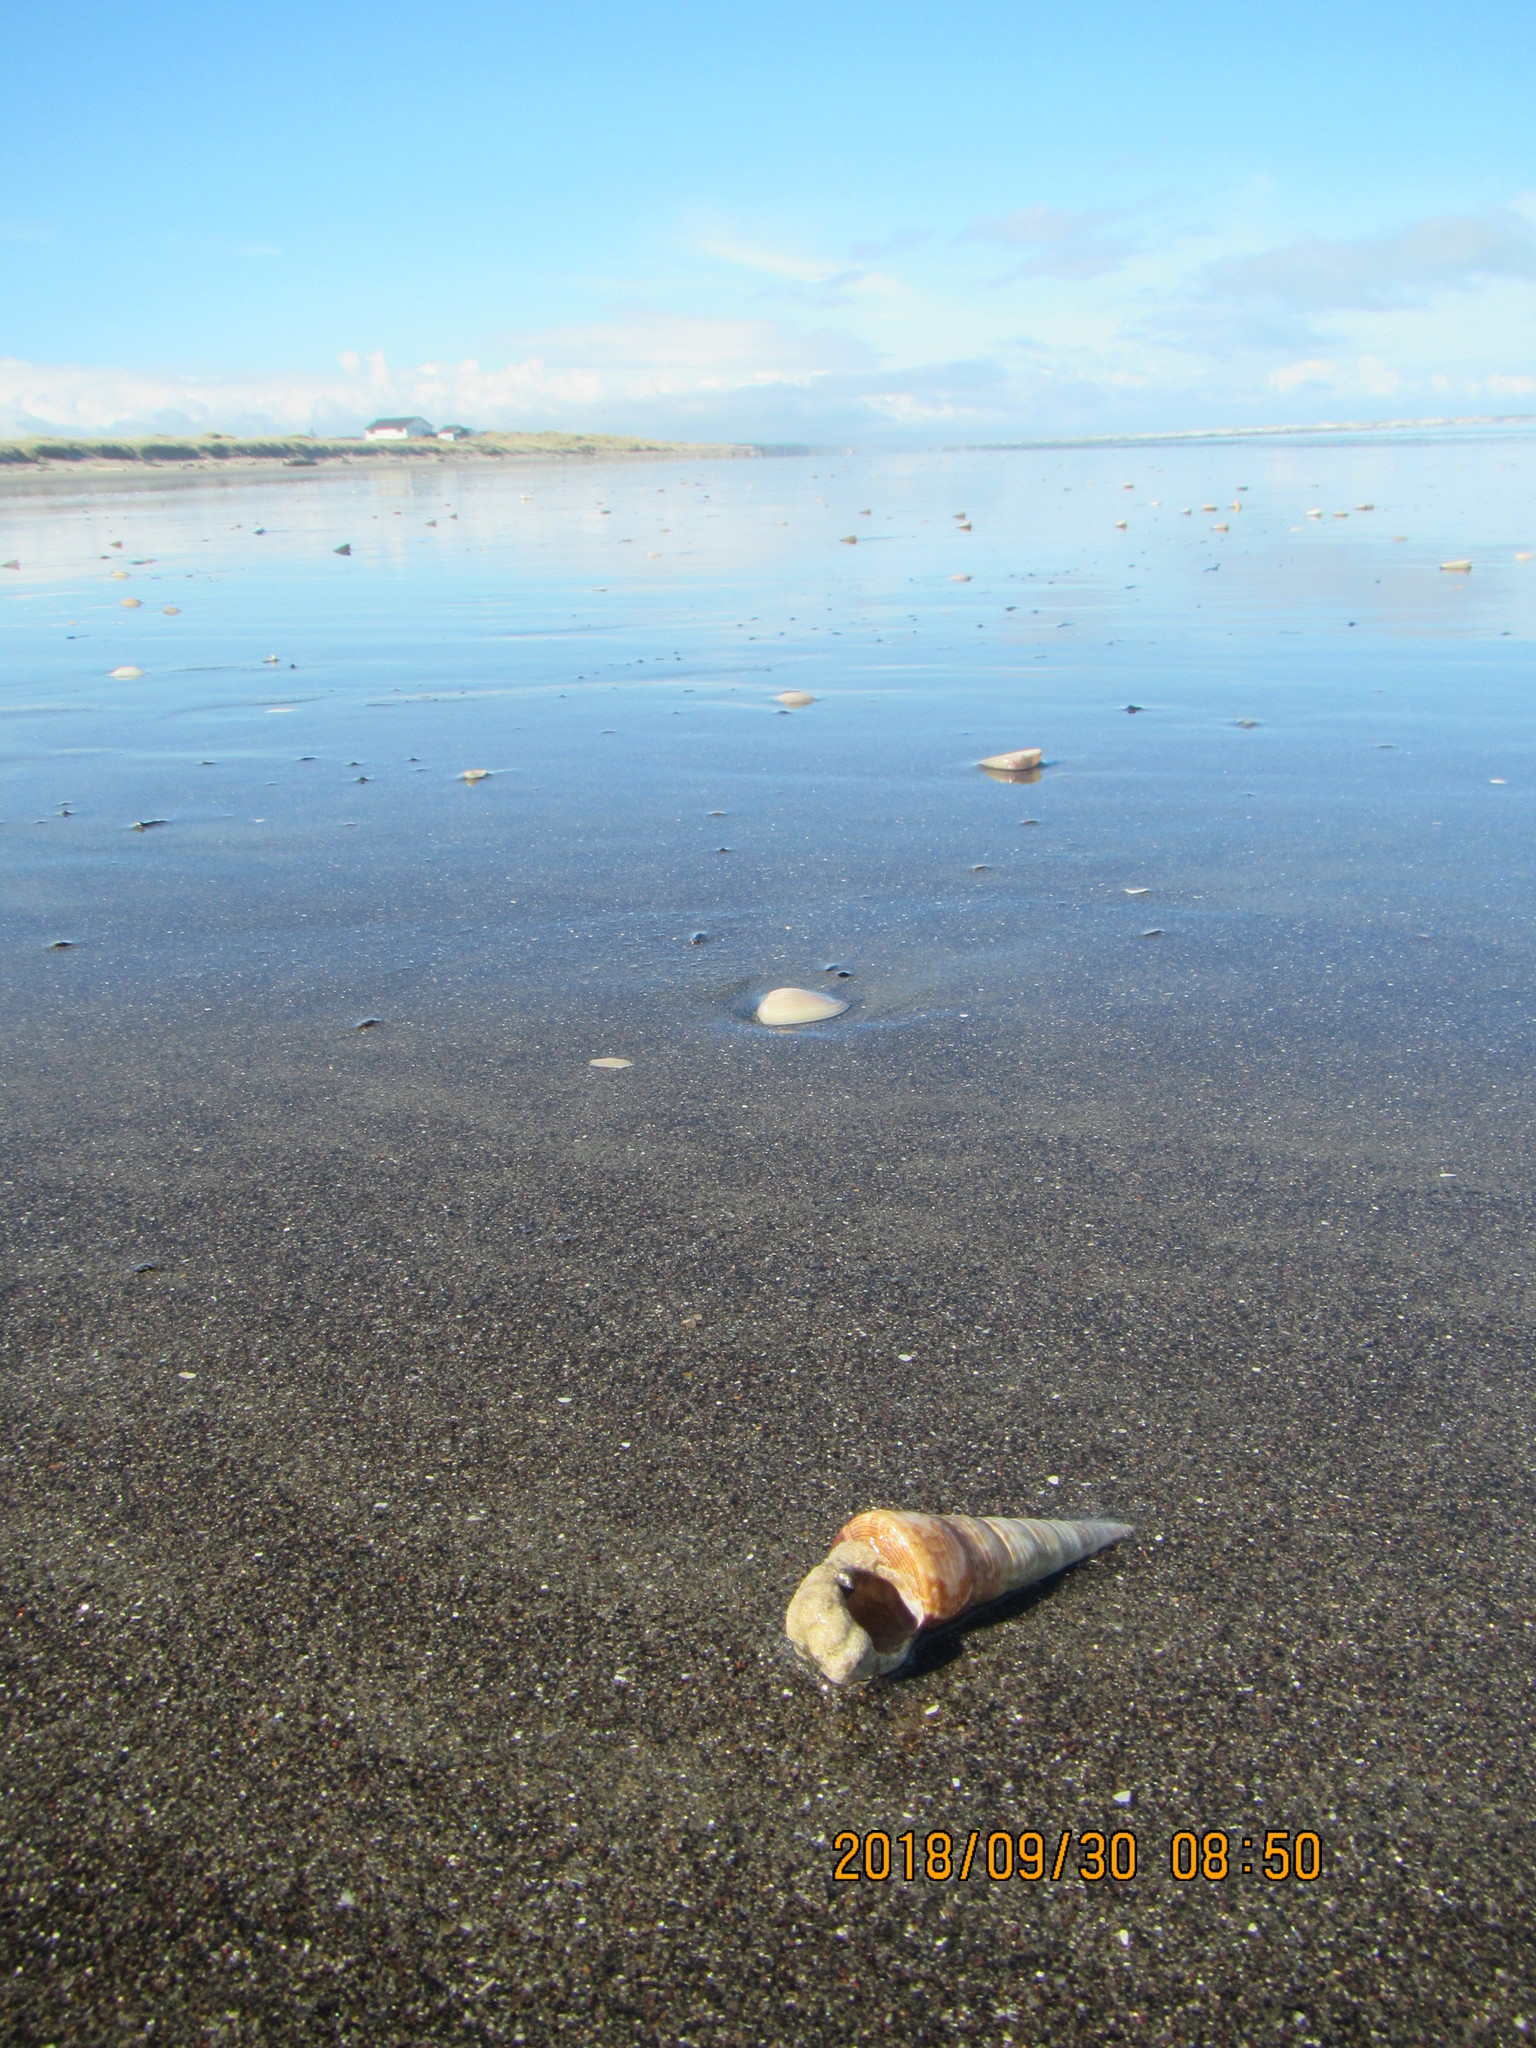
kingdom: Animalia
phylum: Mollusca
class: Gastropoda
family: Turritellidae
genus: Maoricolpus
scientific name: Maoricolpus roseus
